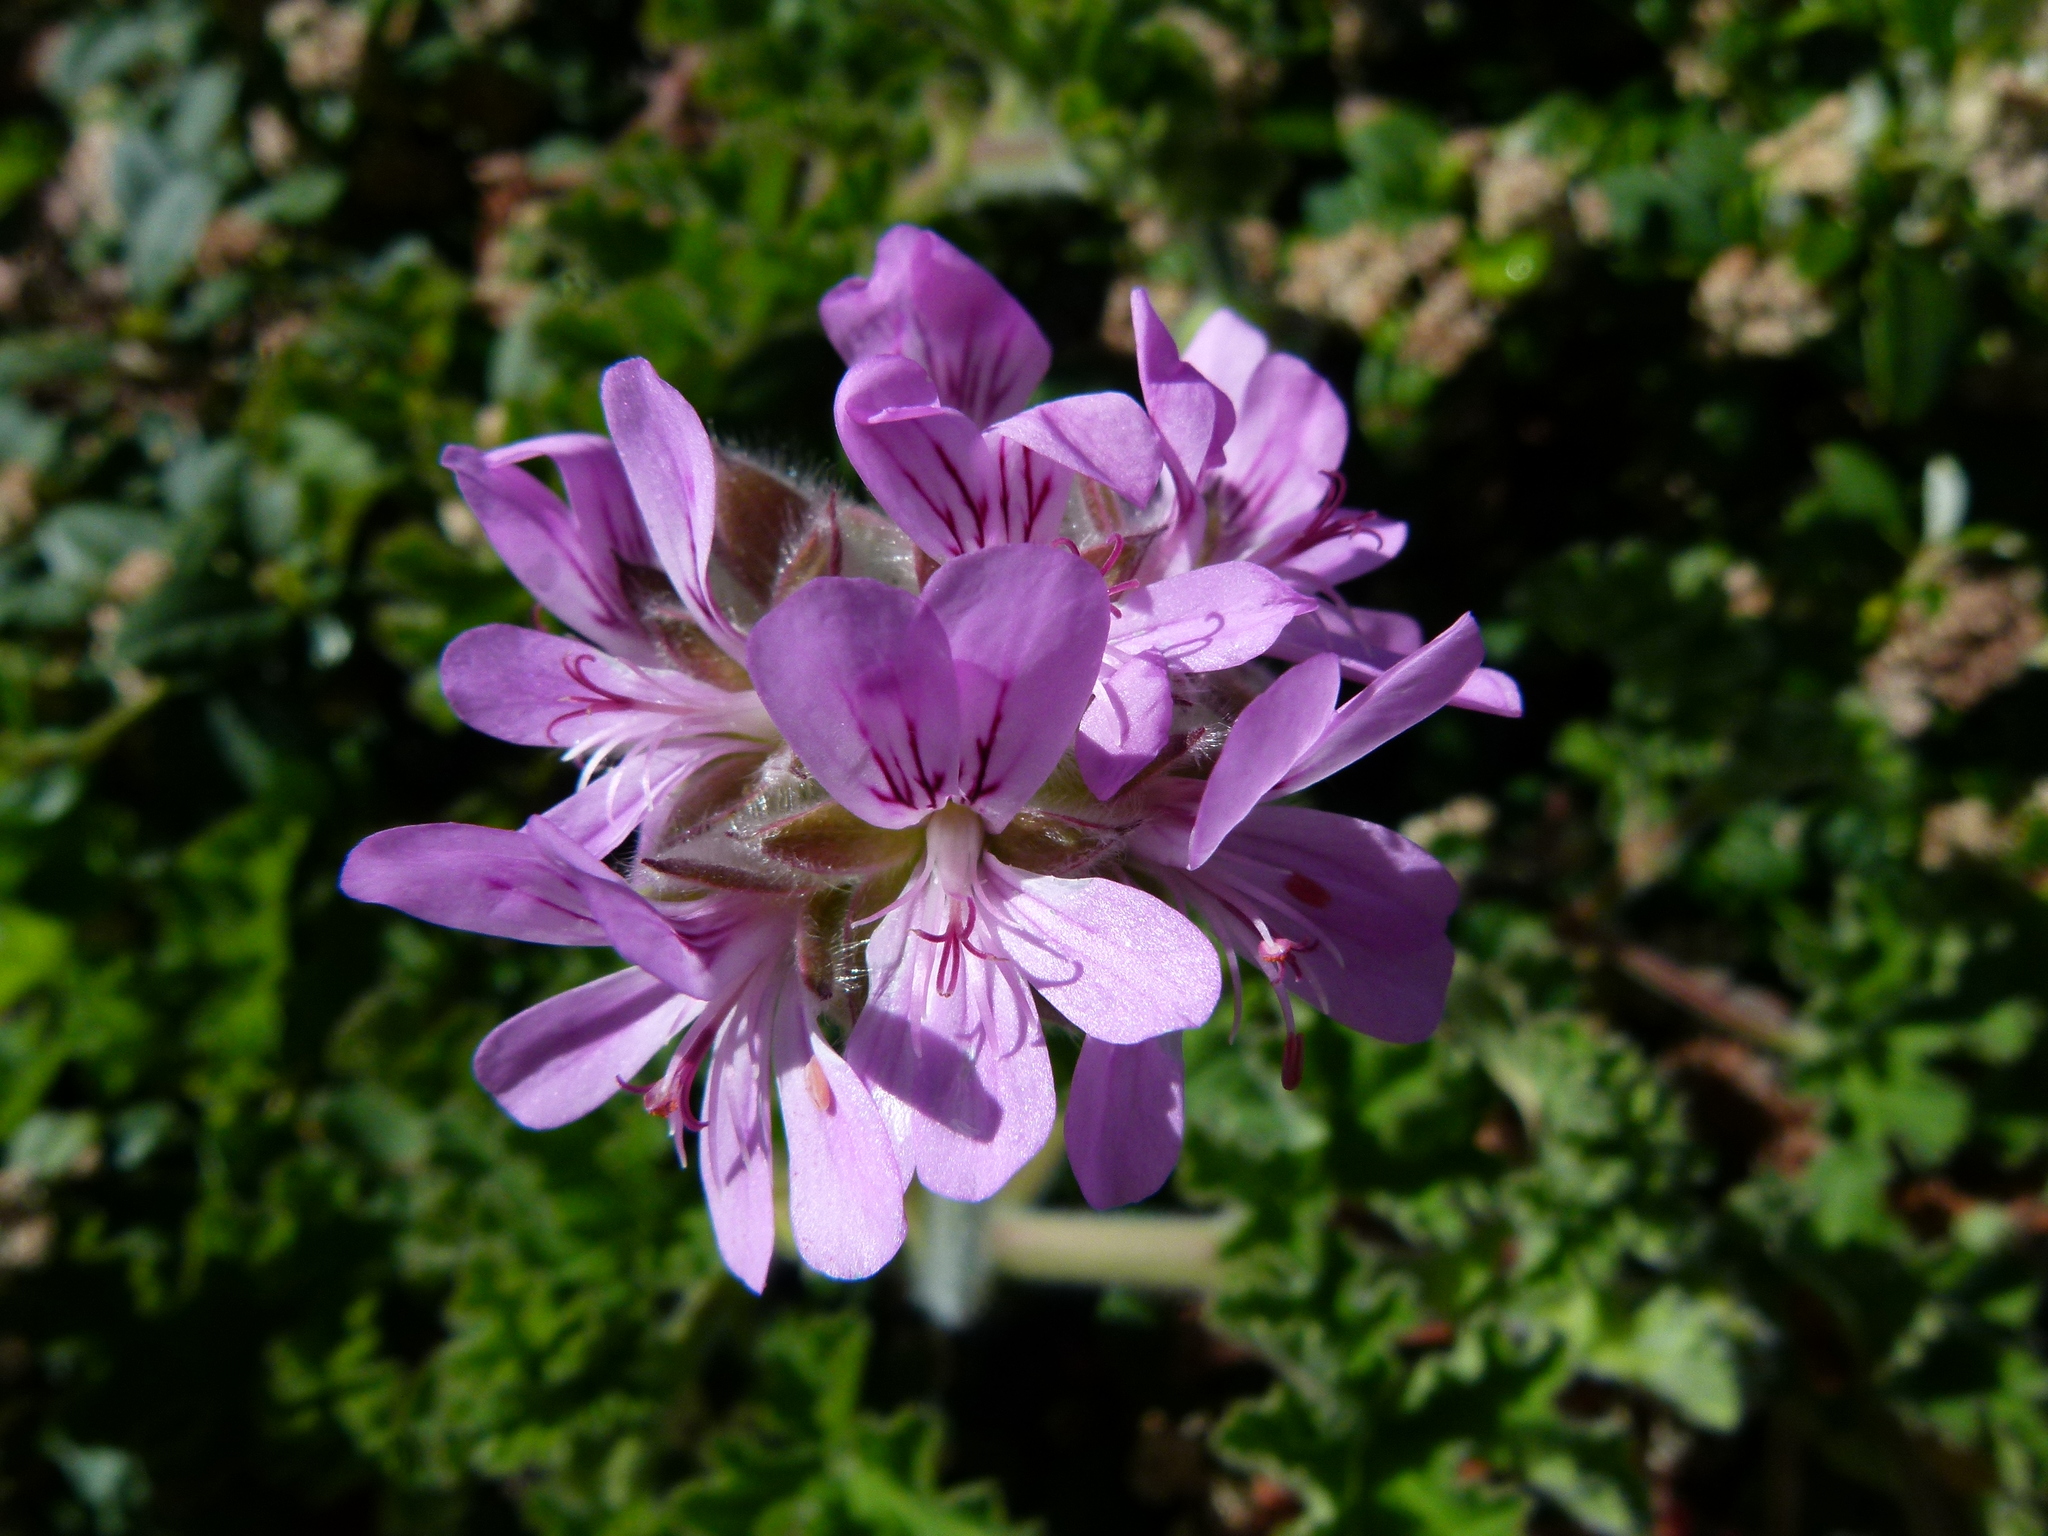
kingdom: Plantae
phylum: Tracheophyta
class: Magnoliopsida
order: Geraniales
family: Geraniaceae
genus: Pelargonium
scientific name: Pelargonium capitatum
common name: Rose scented geranium
